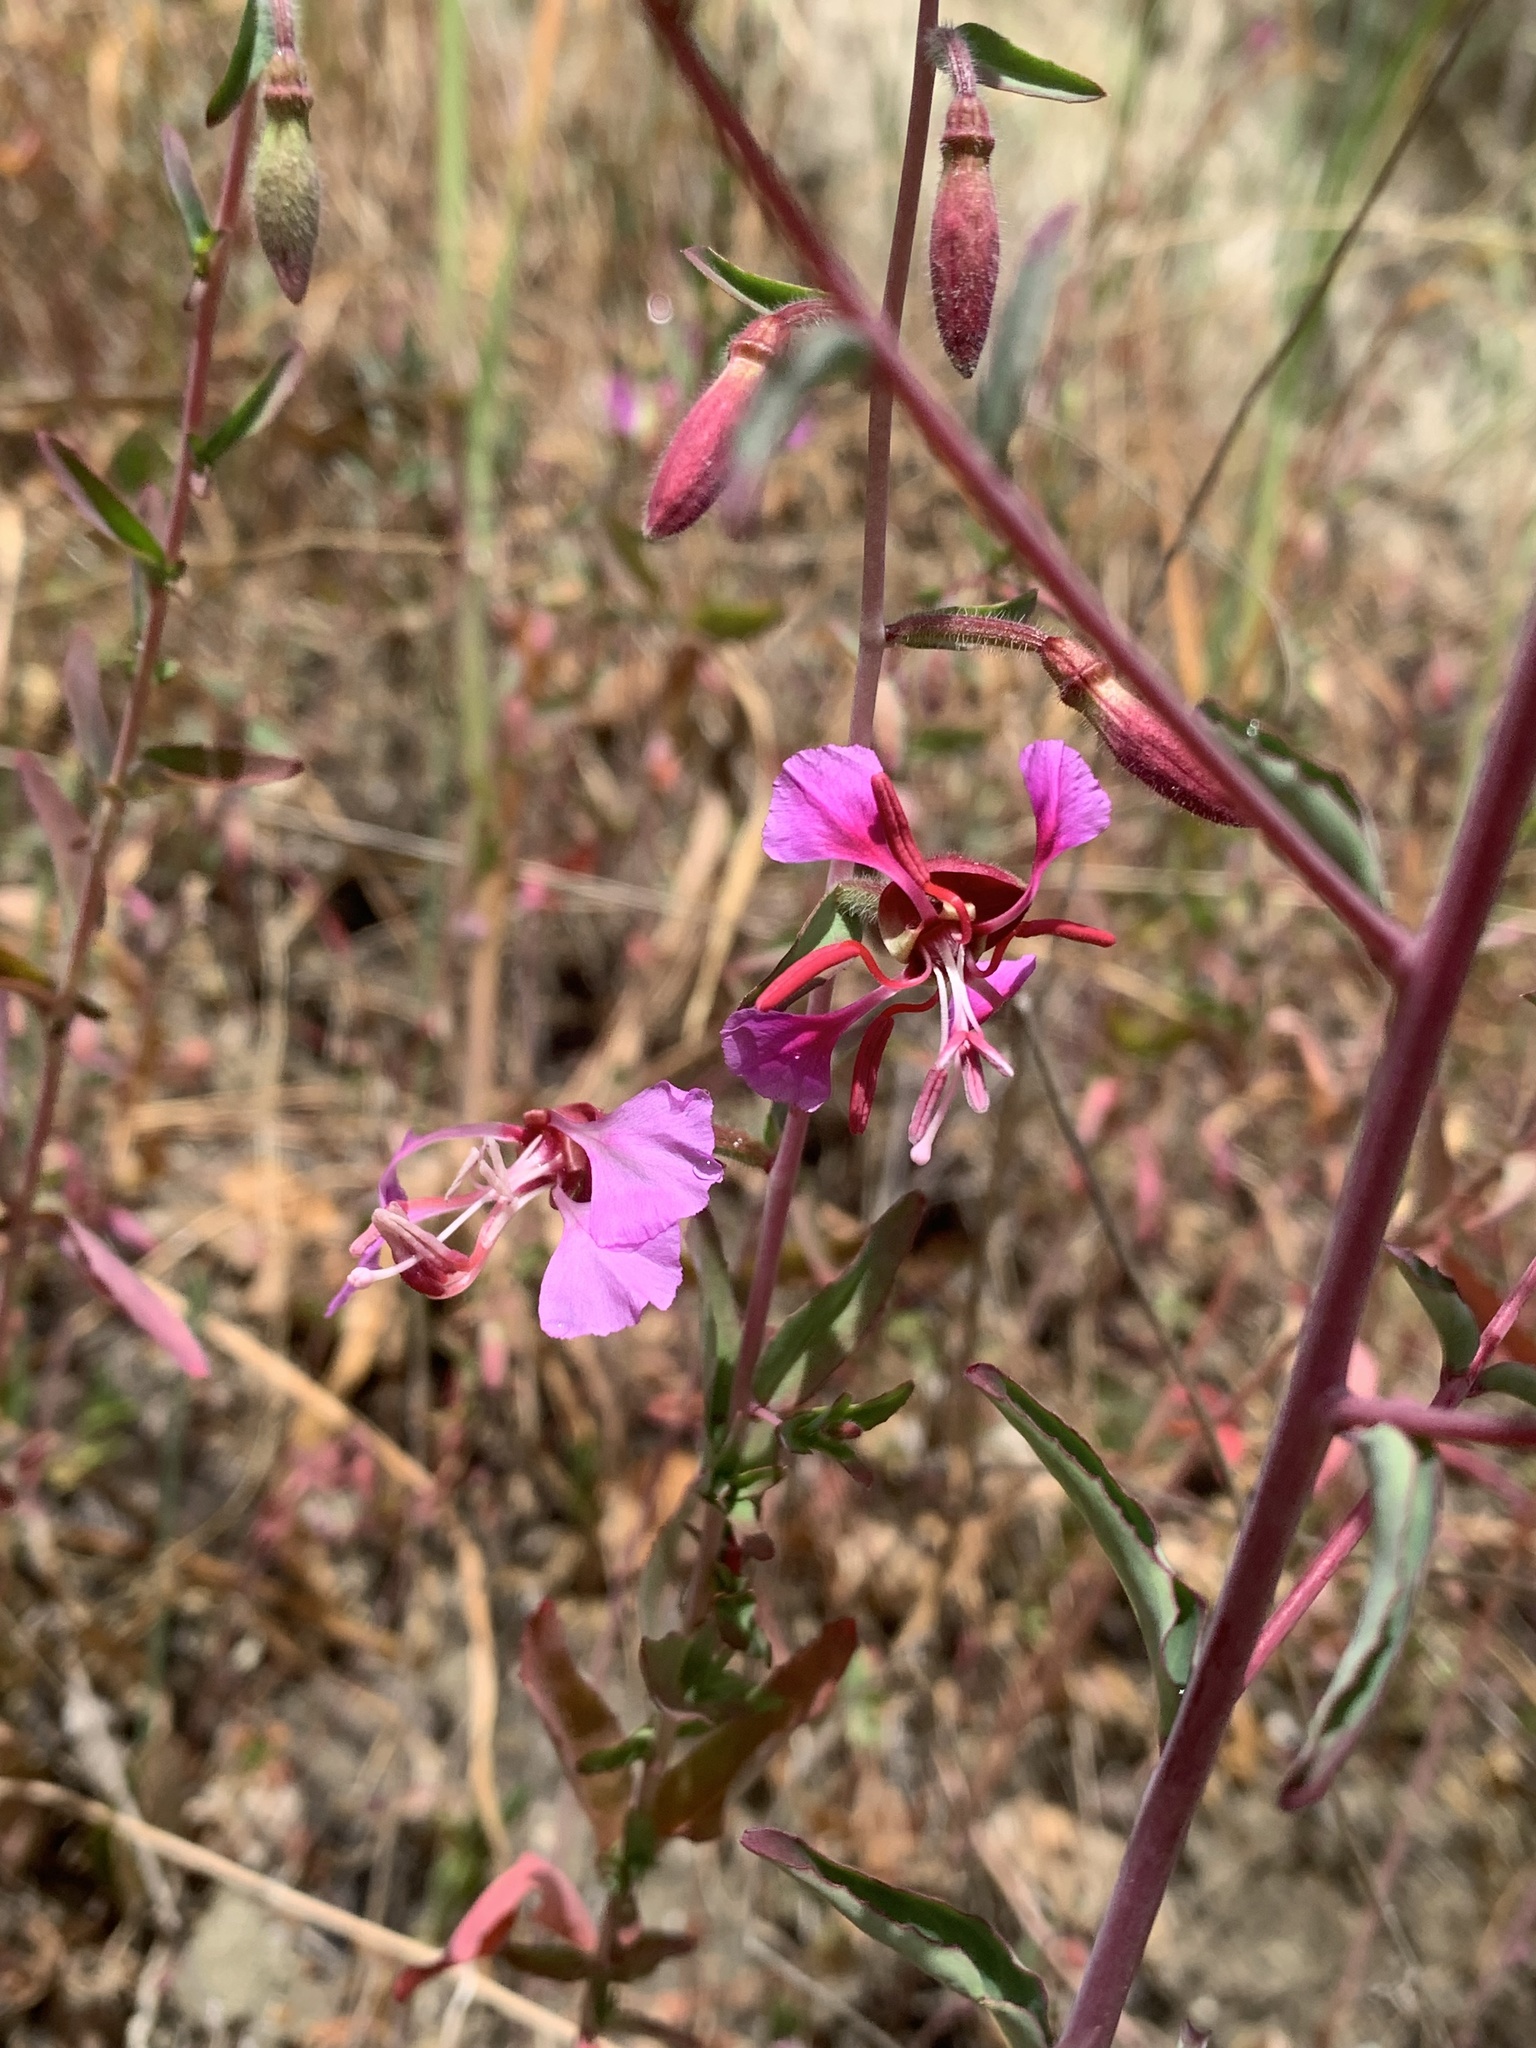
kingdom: Plantae
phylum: Tracheophyta
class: Magnoliopsida
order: Myrtales
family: Onagraceae
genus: Clarkia
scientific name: Clarkia unguiculata
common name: Clarkia
